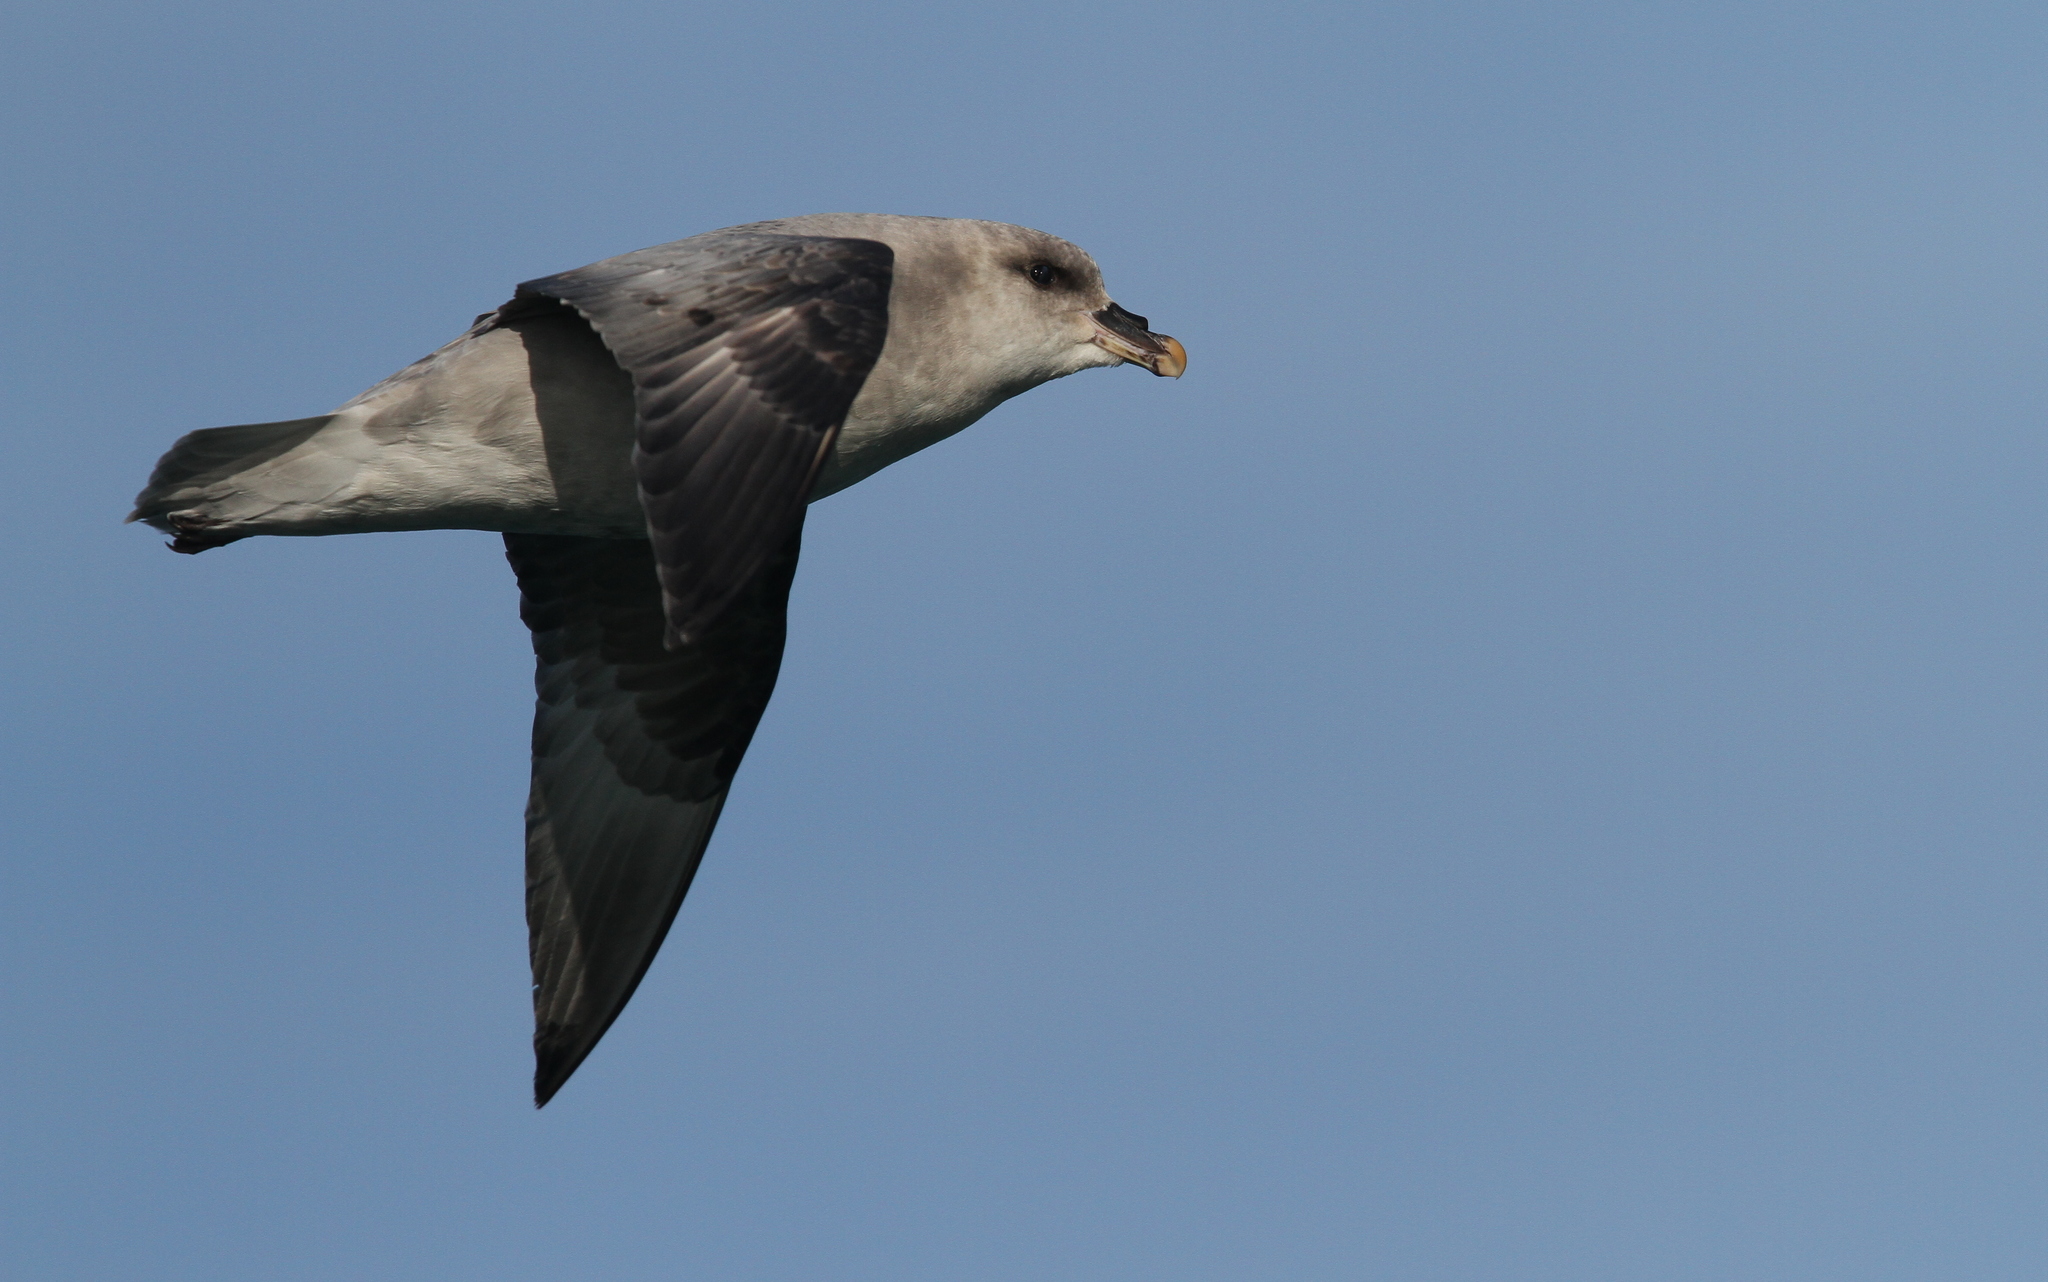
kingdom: Animalia
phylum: Chordata
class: Aves
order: Procellariiformes
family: Procellariidae
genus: Fulmarus
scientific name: Fulmarus glacialis
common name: Northern fulmar
